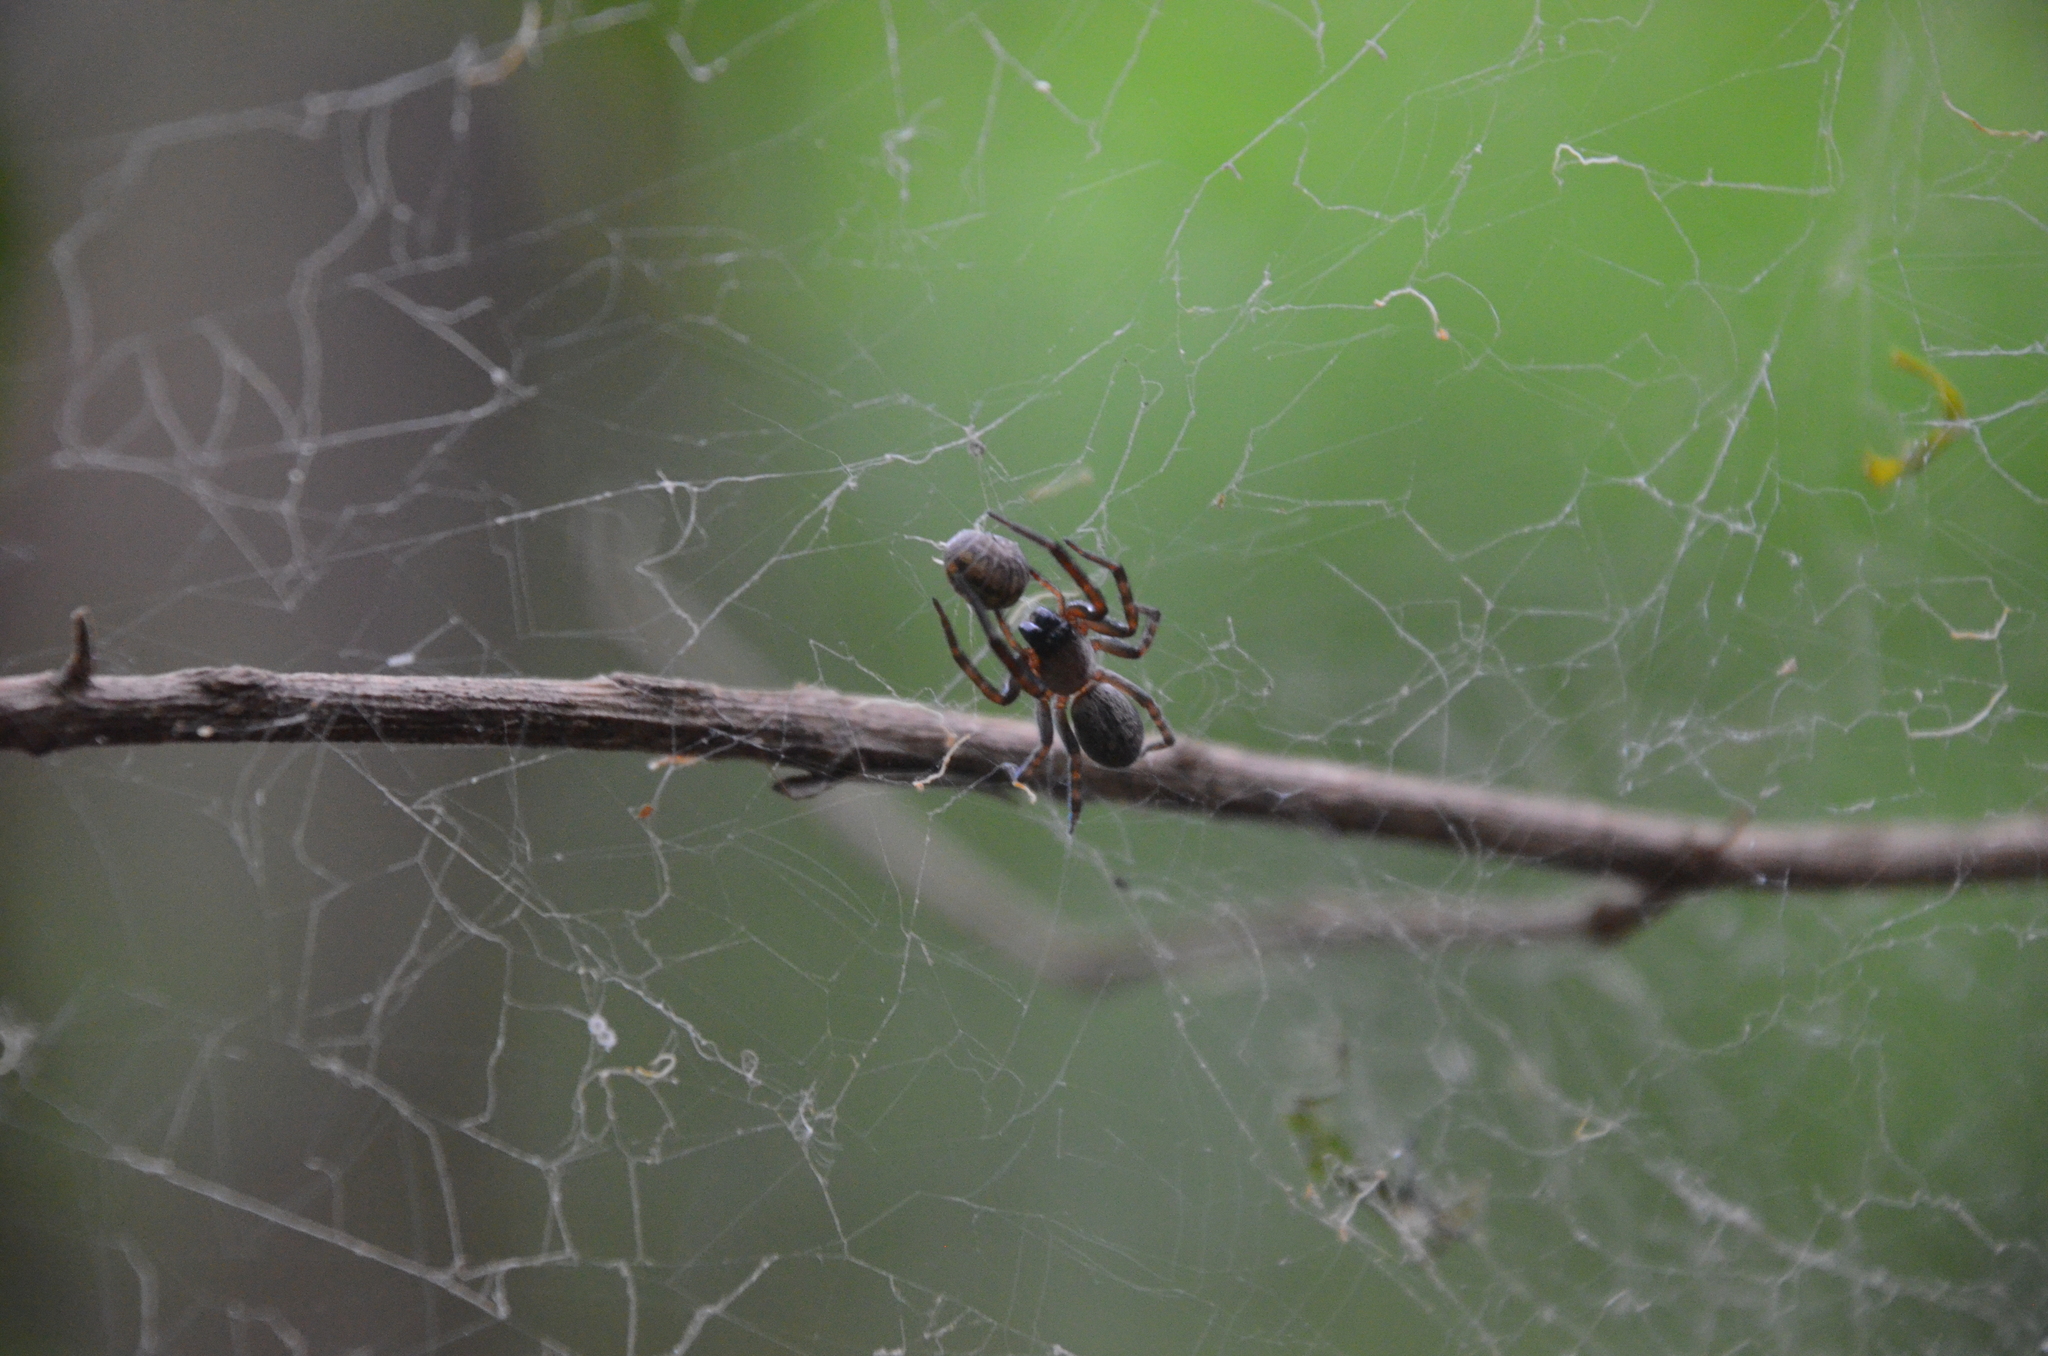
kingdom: Animalia
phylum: Arthropoda
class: Arachnida
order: Araneae
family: Desidae
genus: Badumna
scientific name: Badumna longinqua
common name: Gray house spider
